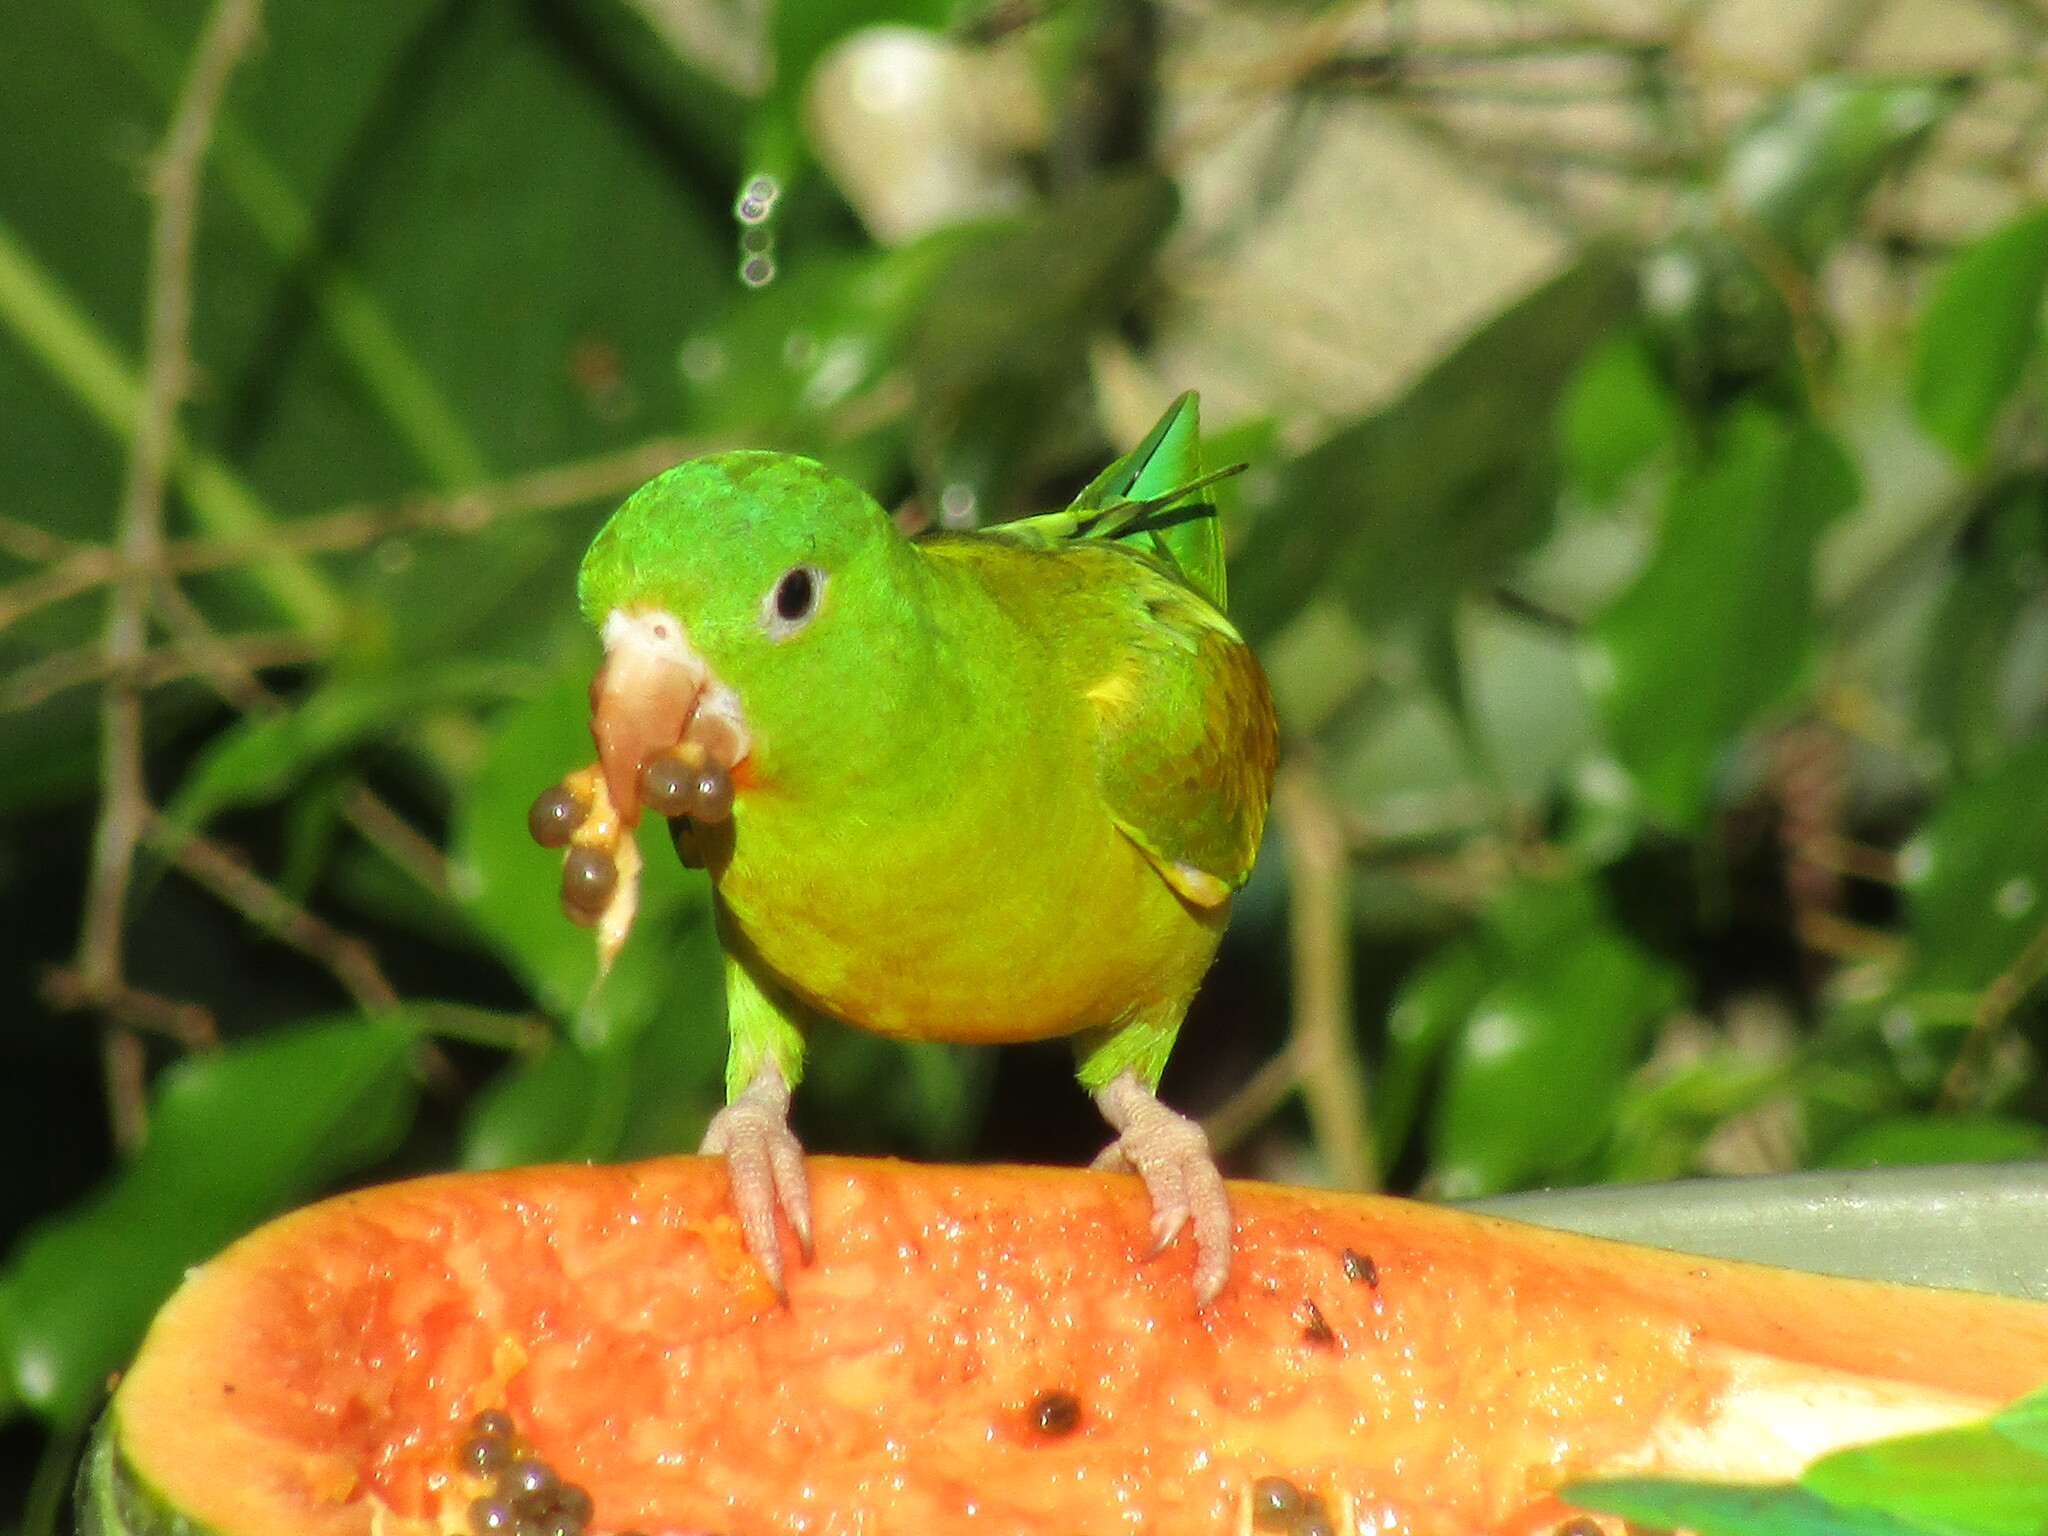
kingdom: Animalia
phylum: Chordata
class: Aves
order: Psittaciformes
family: Psittacidae
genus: Brotogeris
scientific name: Brotogeris jugularis
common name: Orange-chinned parakeet
